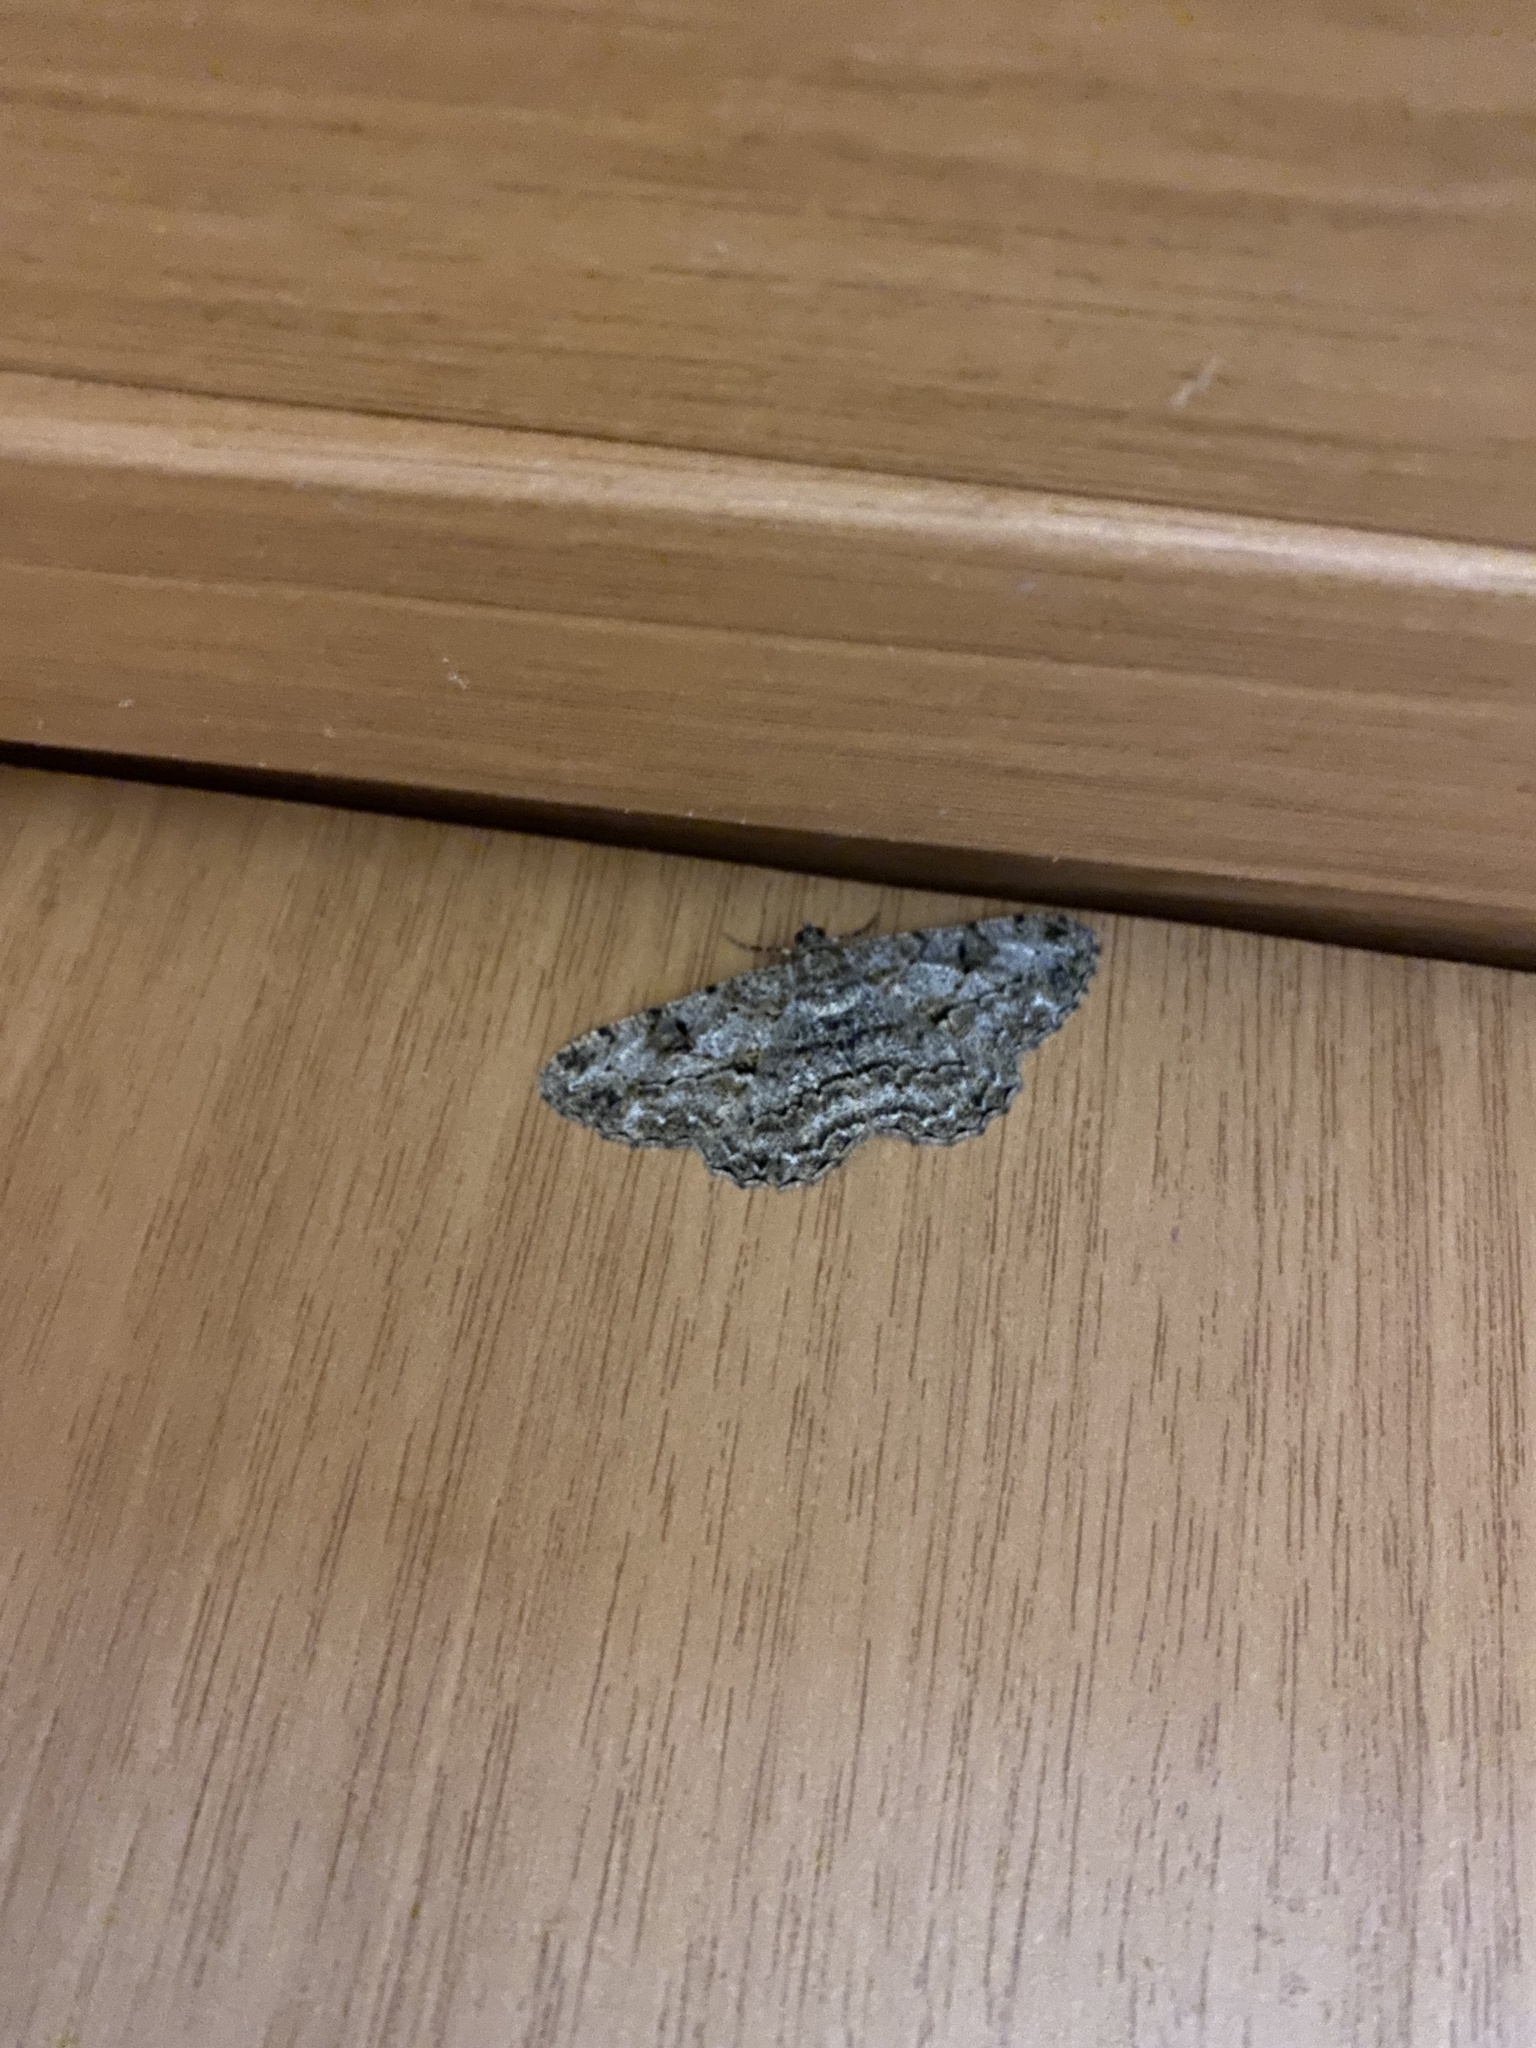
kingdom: Animalia
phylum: Arthropoda
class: Insecta
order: Lepidoptera
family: Geometridae
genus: Peribatodes
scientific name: Peribatodes rhomboidaria
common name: Willow beauty
